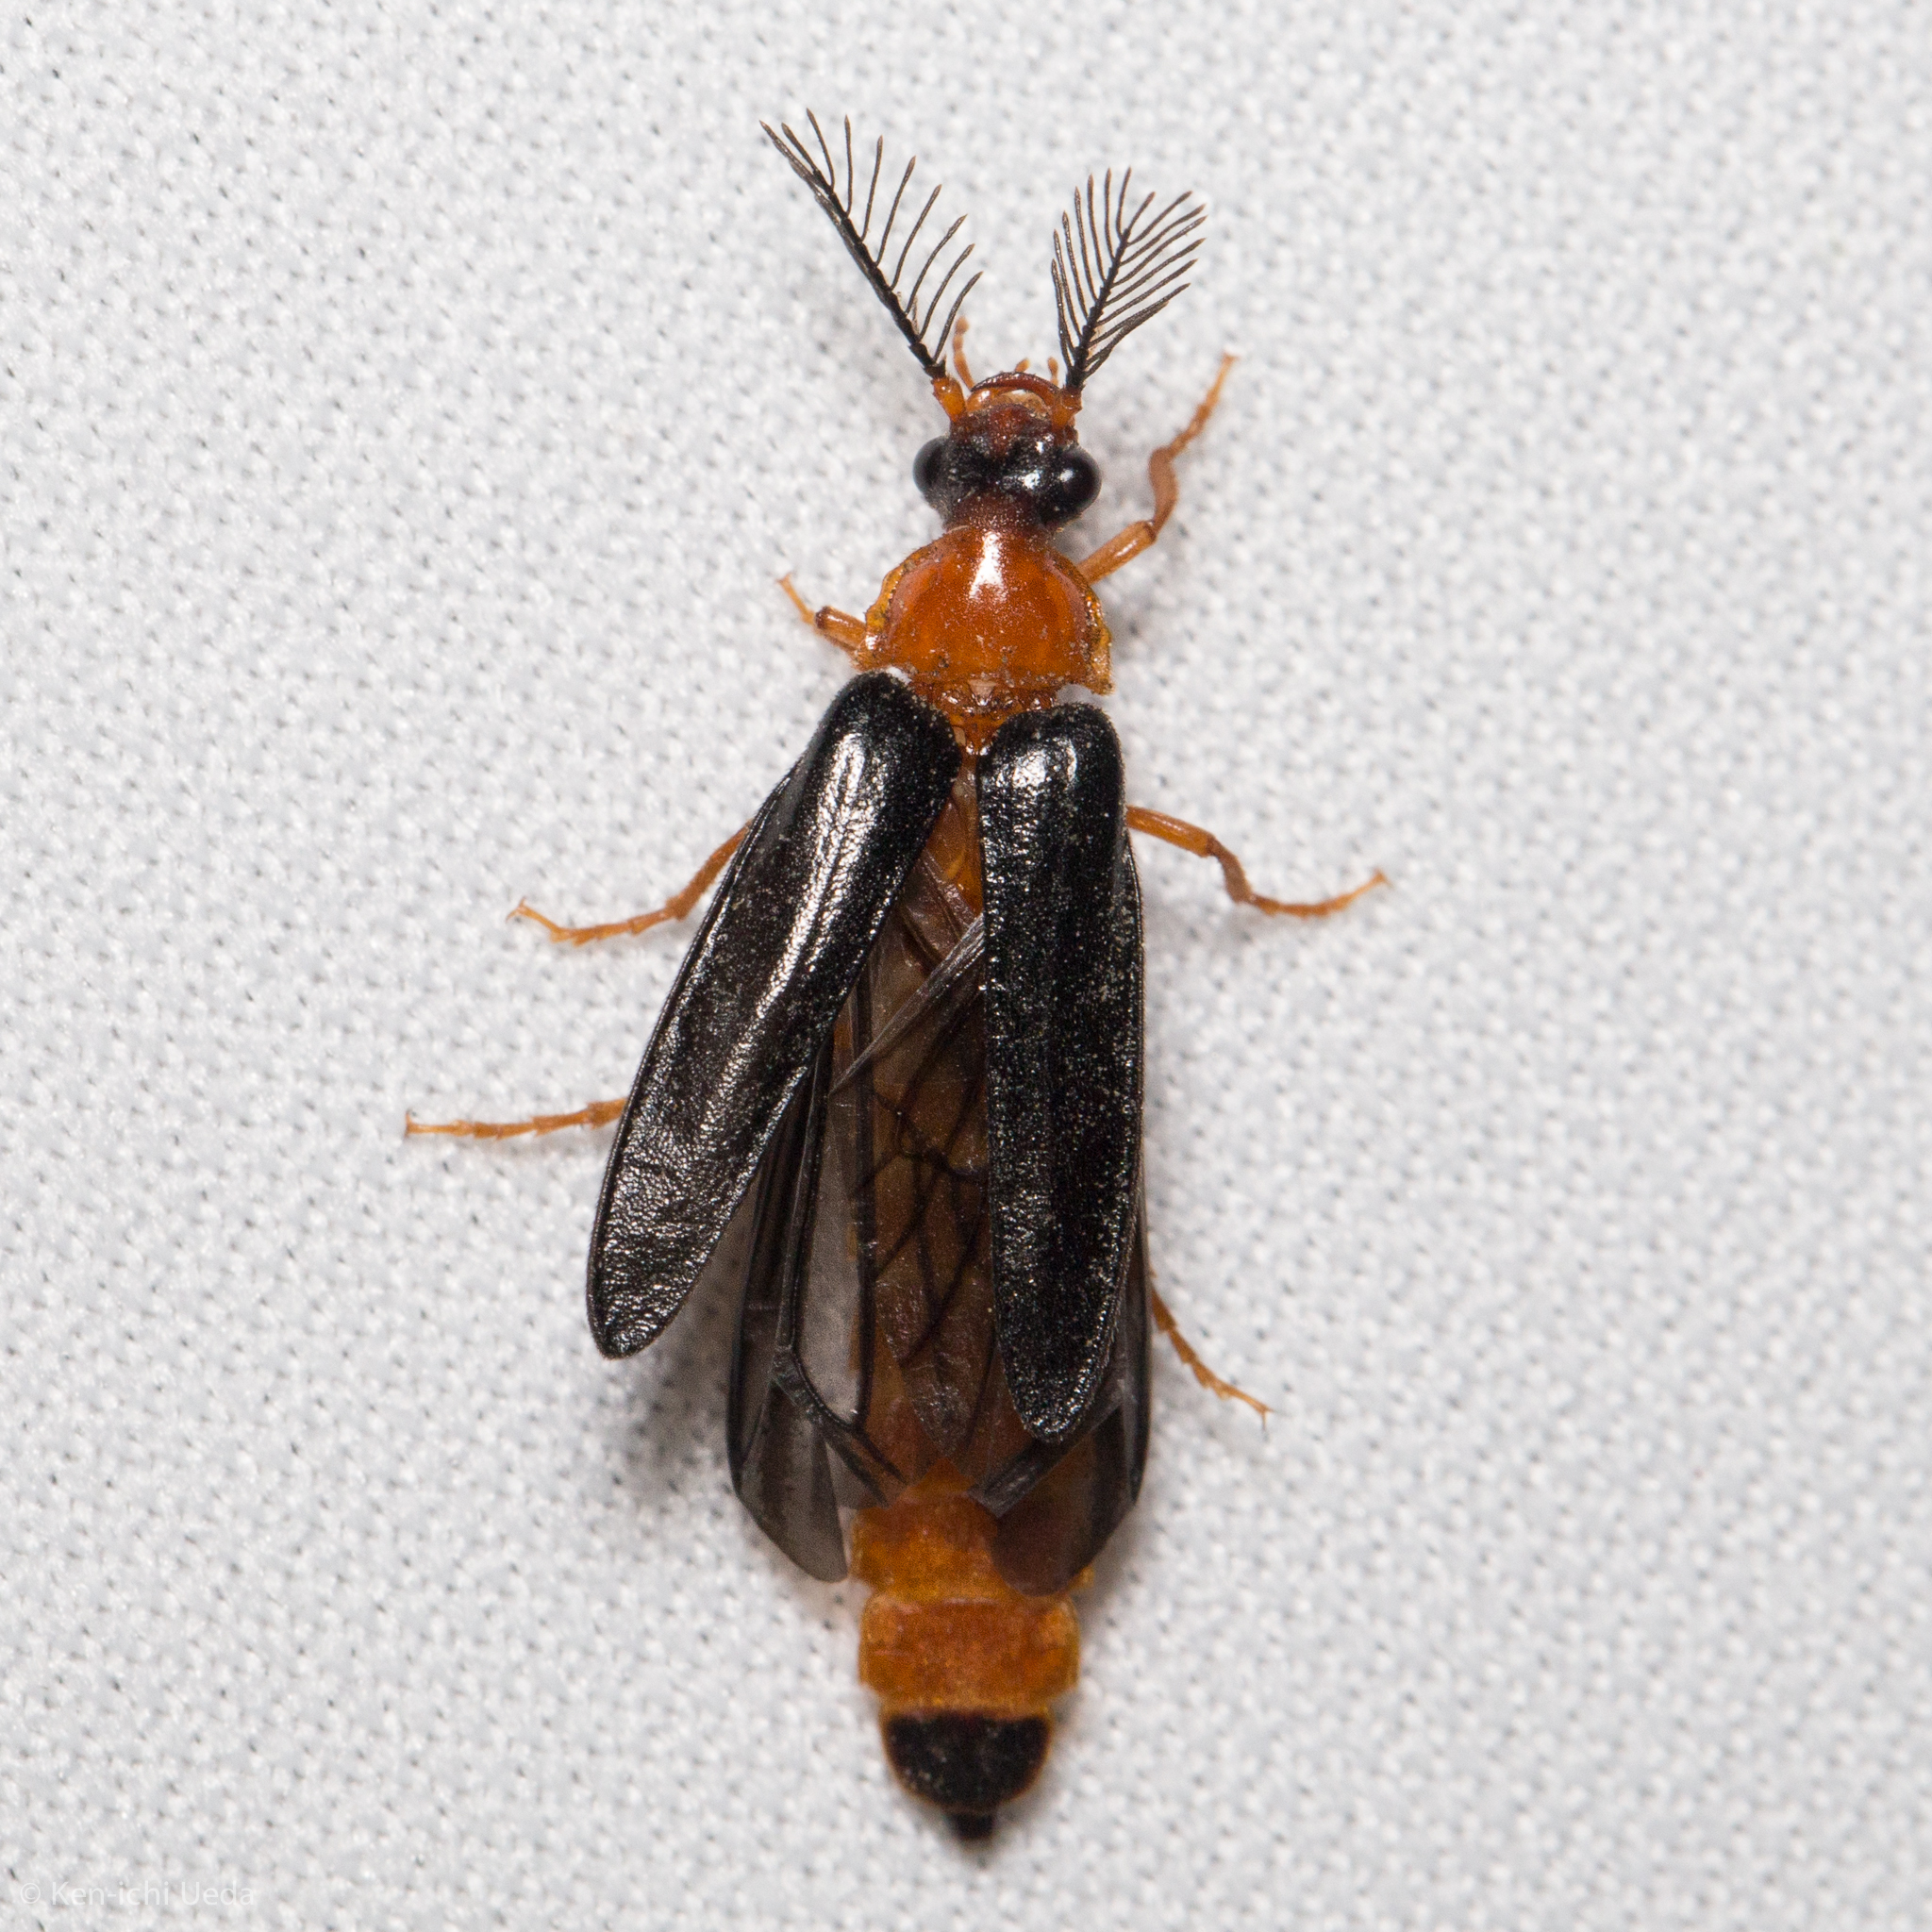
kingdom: Animalia
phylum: Arthropoda
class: Insecta
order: Coleoptera
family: Phengodidae
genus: Zarhipis
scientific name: Zarhipis integripennis
